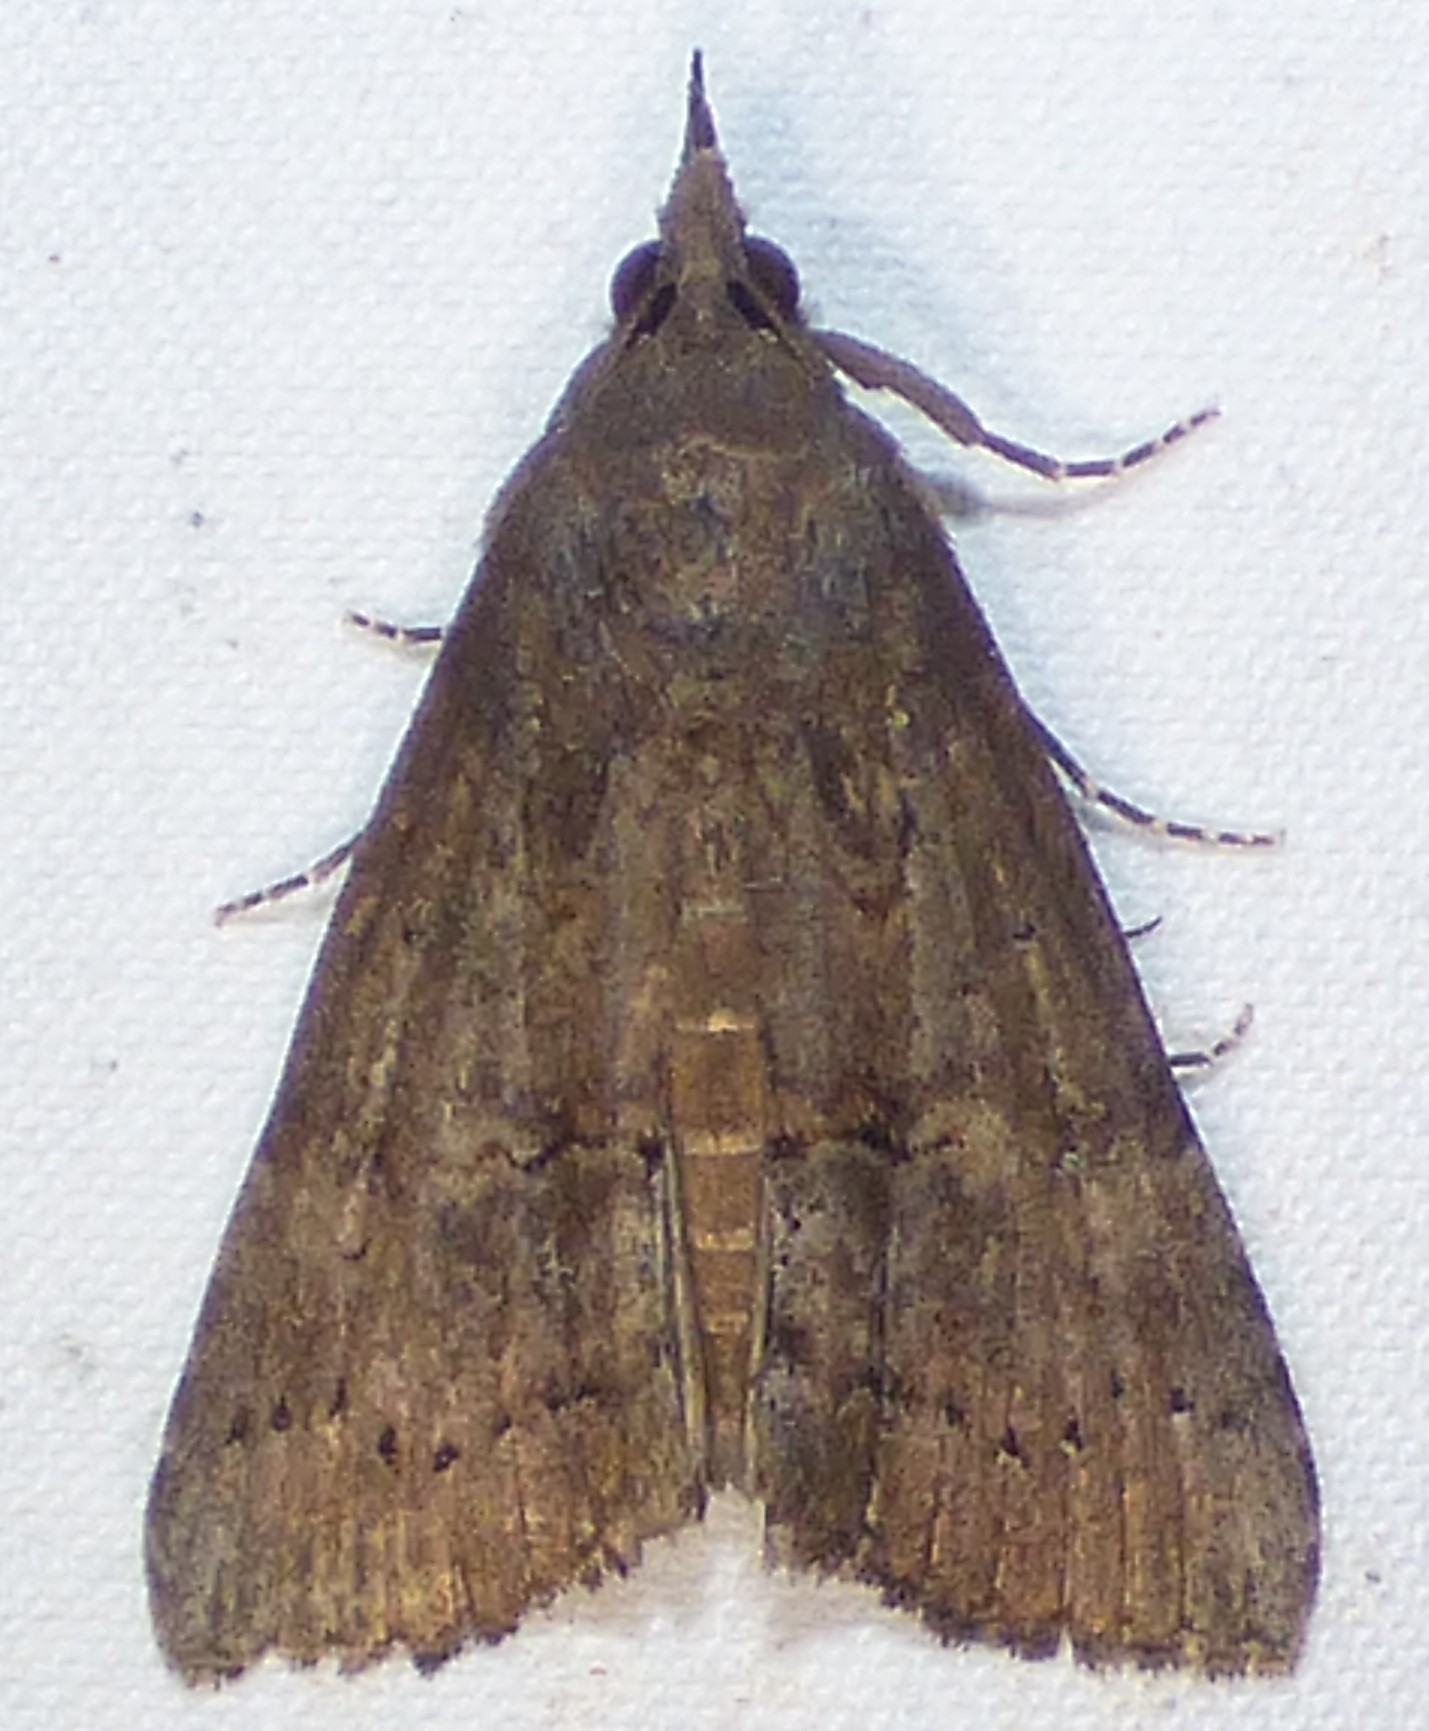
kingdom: Animalia
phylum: Arthropoda
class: Insecta
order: Lepidoptera
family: Erebidae
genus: Hypena
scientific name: Hypena scabra
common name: Green cloverworm
